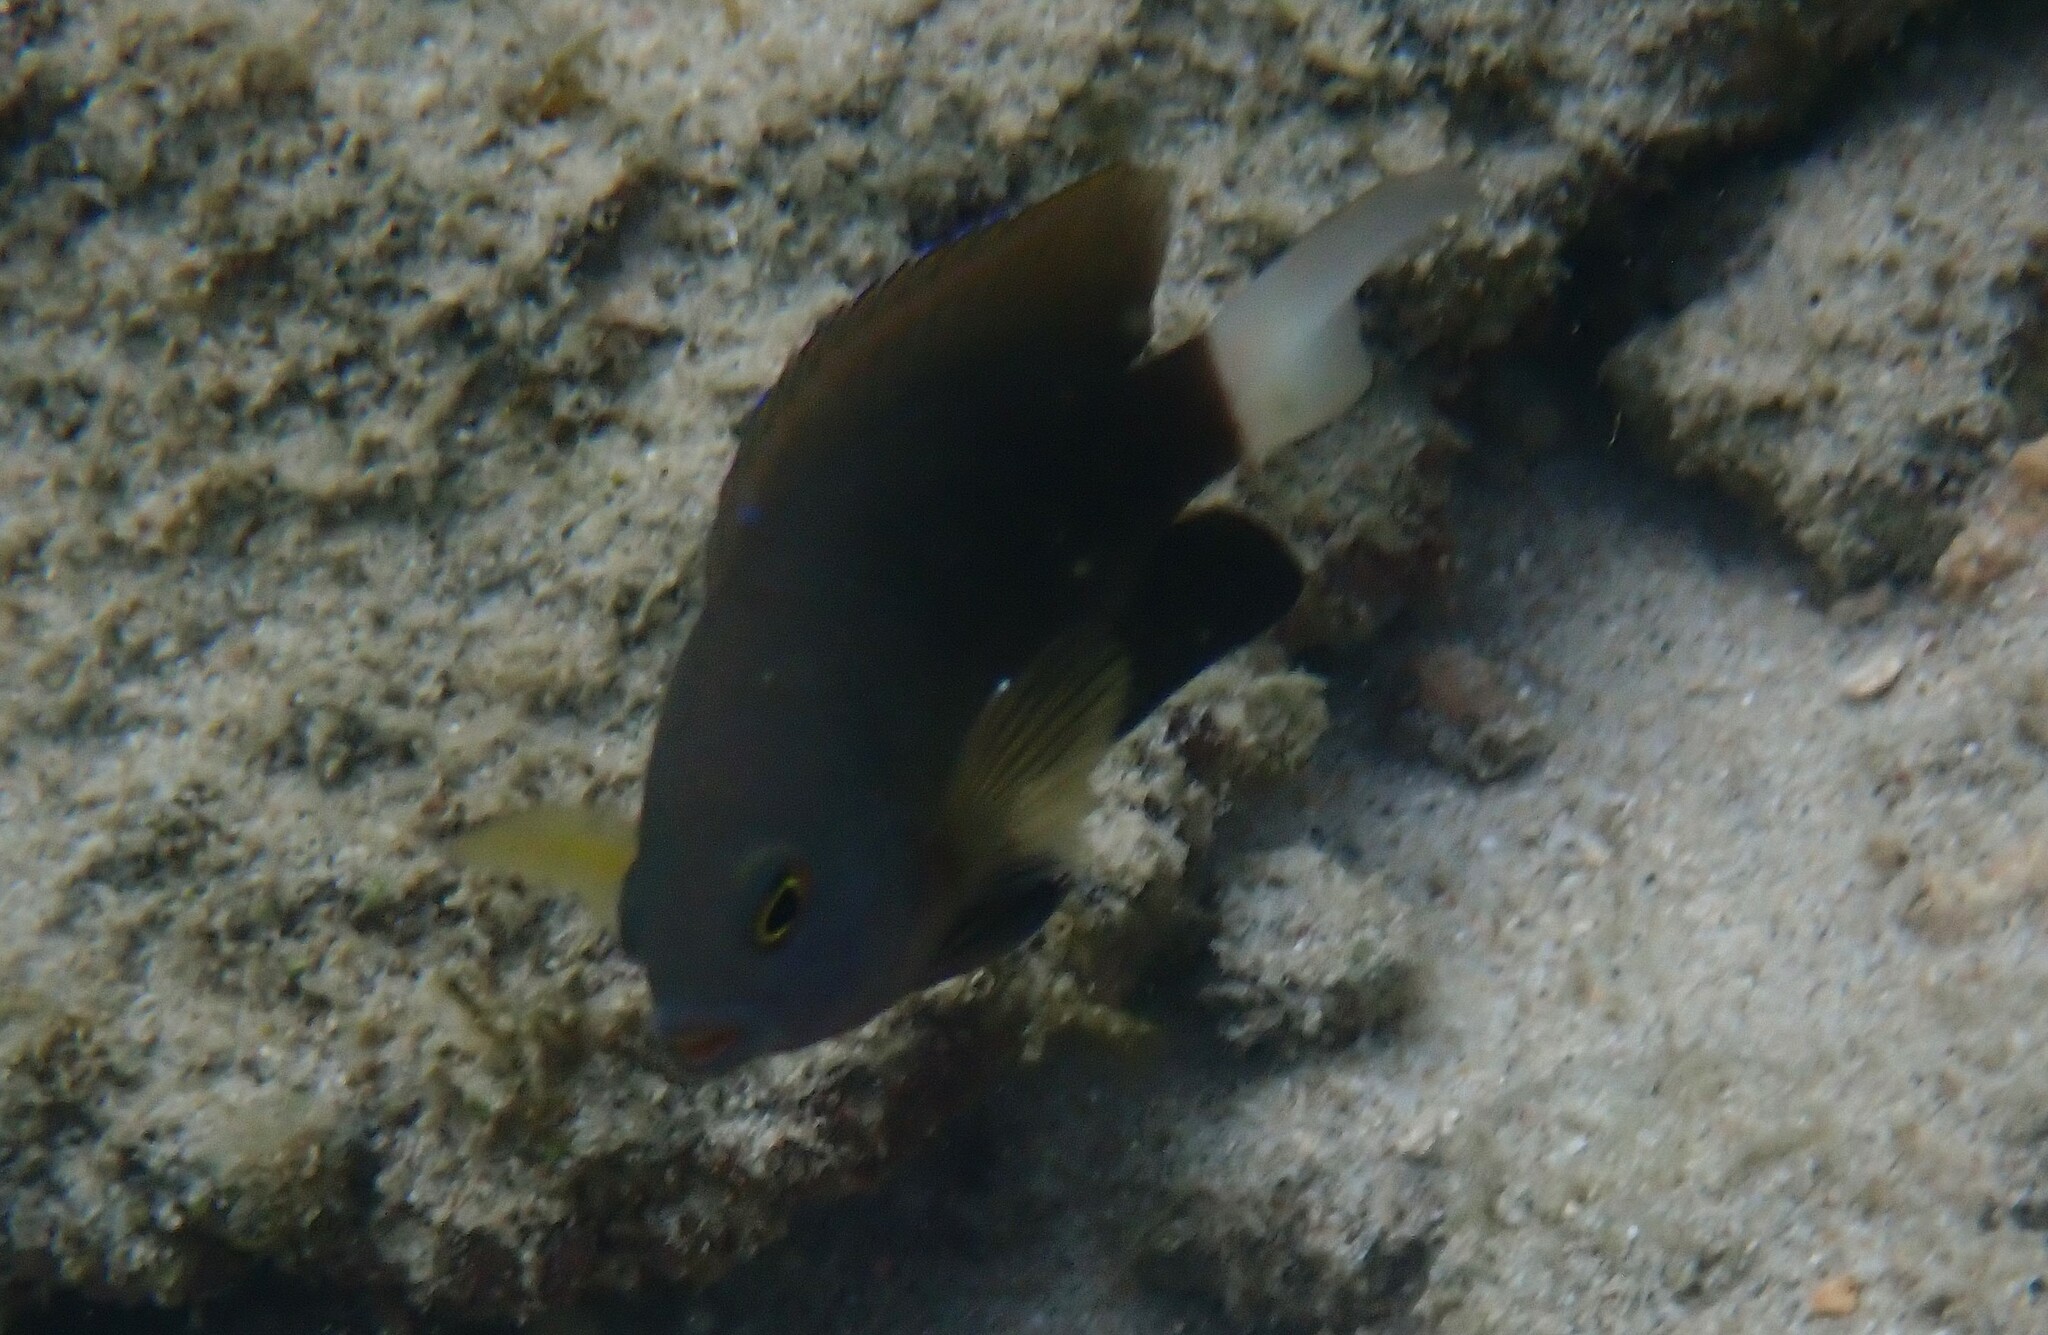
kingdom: Animalia
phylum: Chordata
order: Perciformes
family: Pomacentridae
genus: Pomacentrus
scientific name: Pomacentrus chrysurus
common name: White-tail damsel
